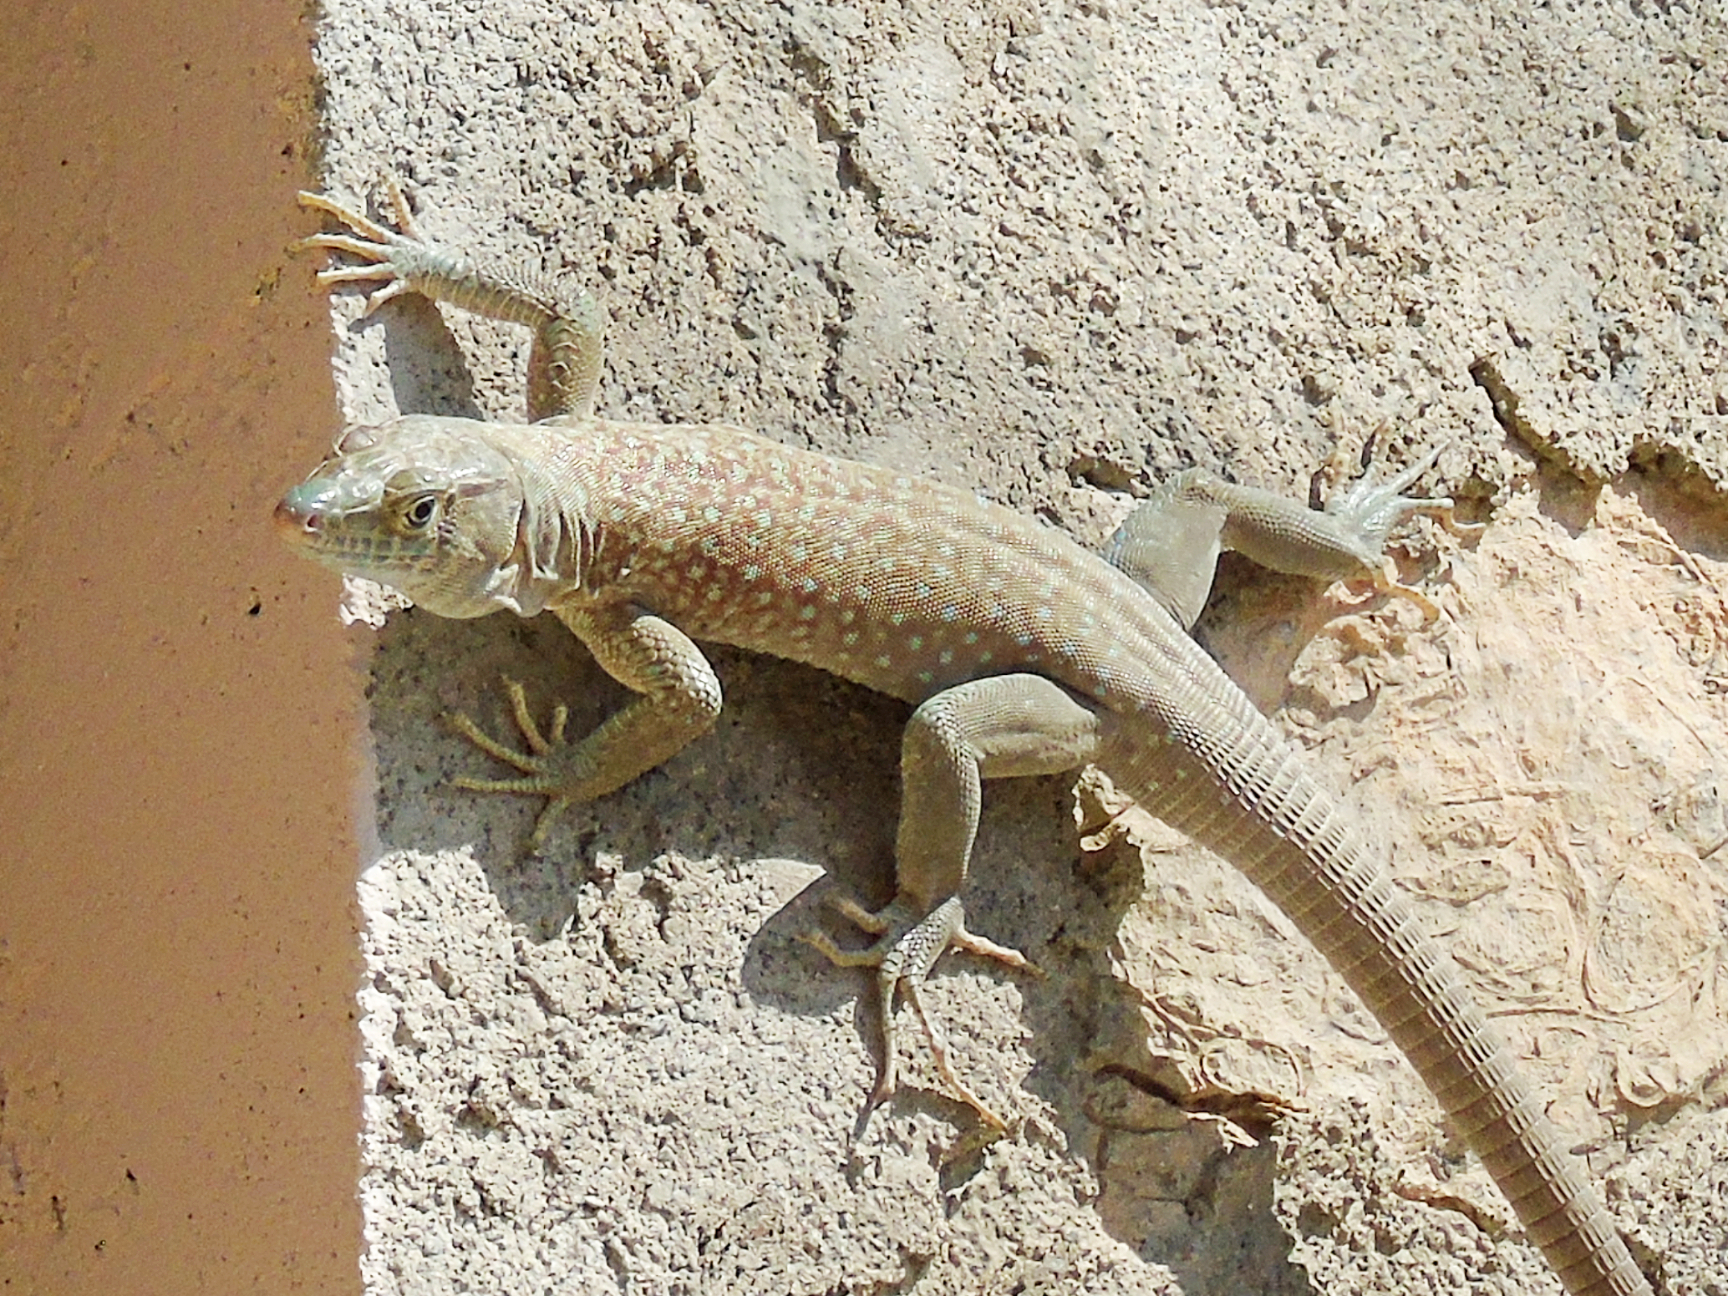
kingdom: Animalia
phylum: Chordata
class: Squamata
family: Lacertidae
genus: Omanosaura
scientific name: Omanosaura jayakari
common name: Jayakar lizard
